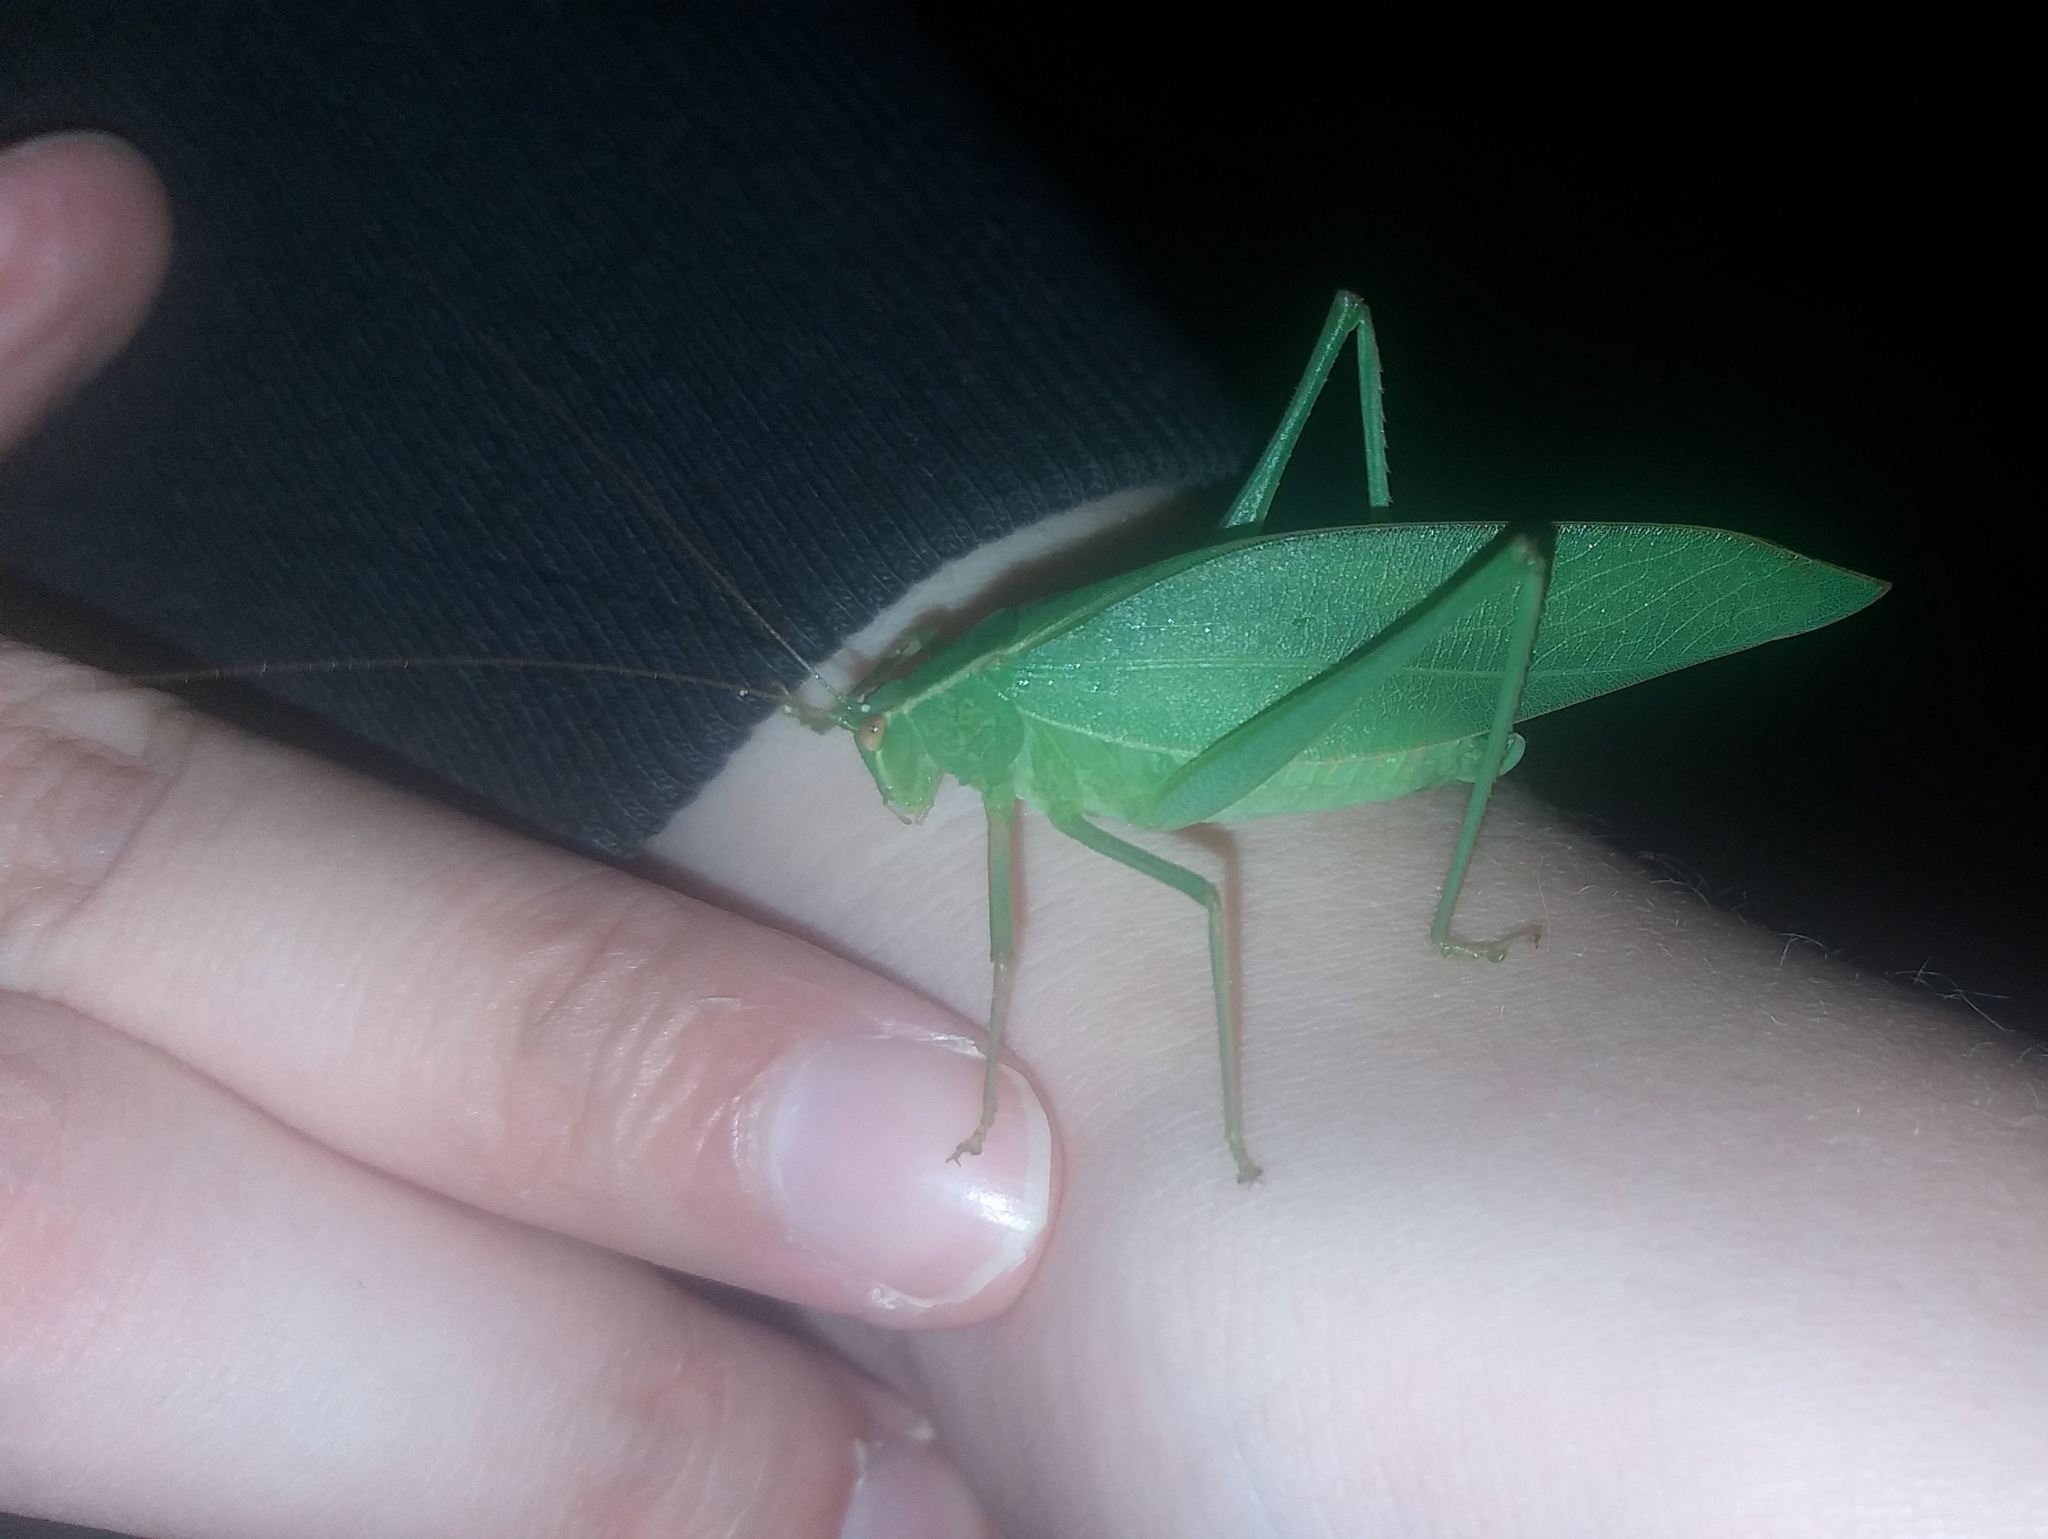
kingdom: Animalia
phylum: Arthropoda
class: Insecta
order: Orthoptera
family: Tettigoniidae
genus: Caedicia
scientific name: Caedicia simplex
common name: Common garden katydid
